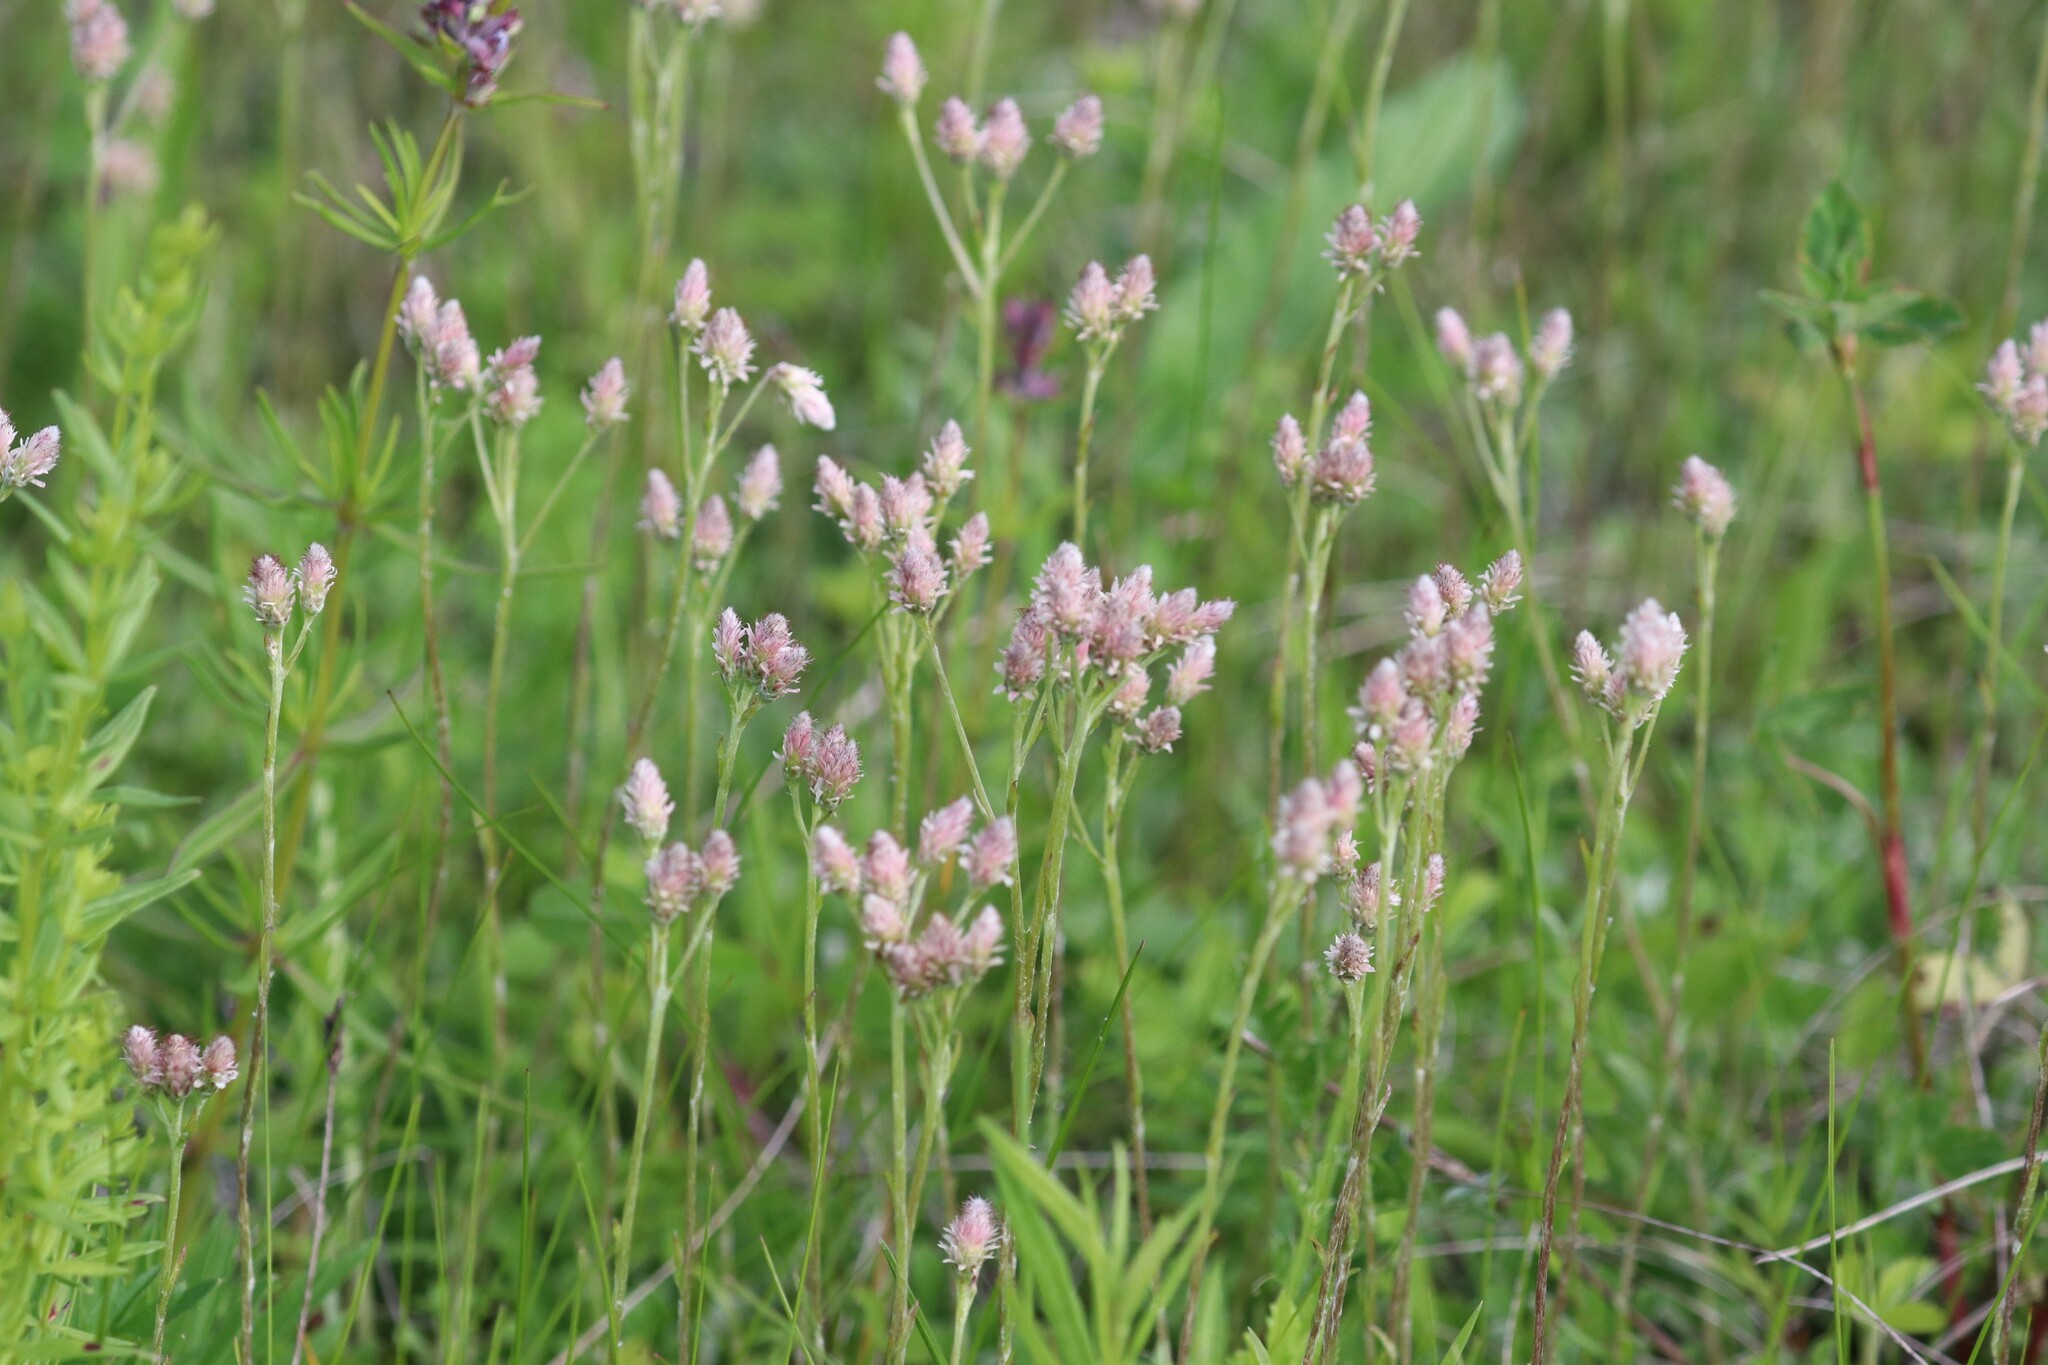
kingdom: Plantae
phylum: Tracheophyta
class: Magnoliopsida
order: Asterales
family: Asteraceae
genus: Antennaria
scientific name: Antennaria dioica
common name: Mountain everlasting
